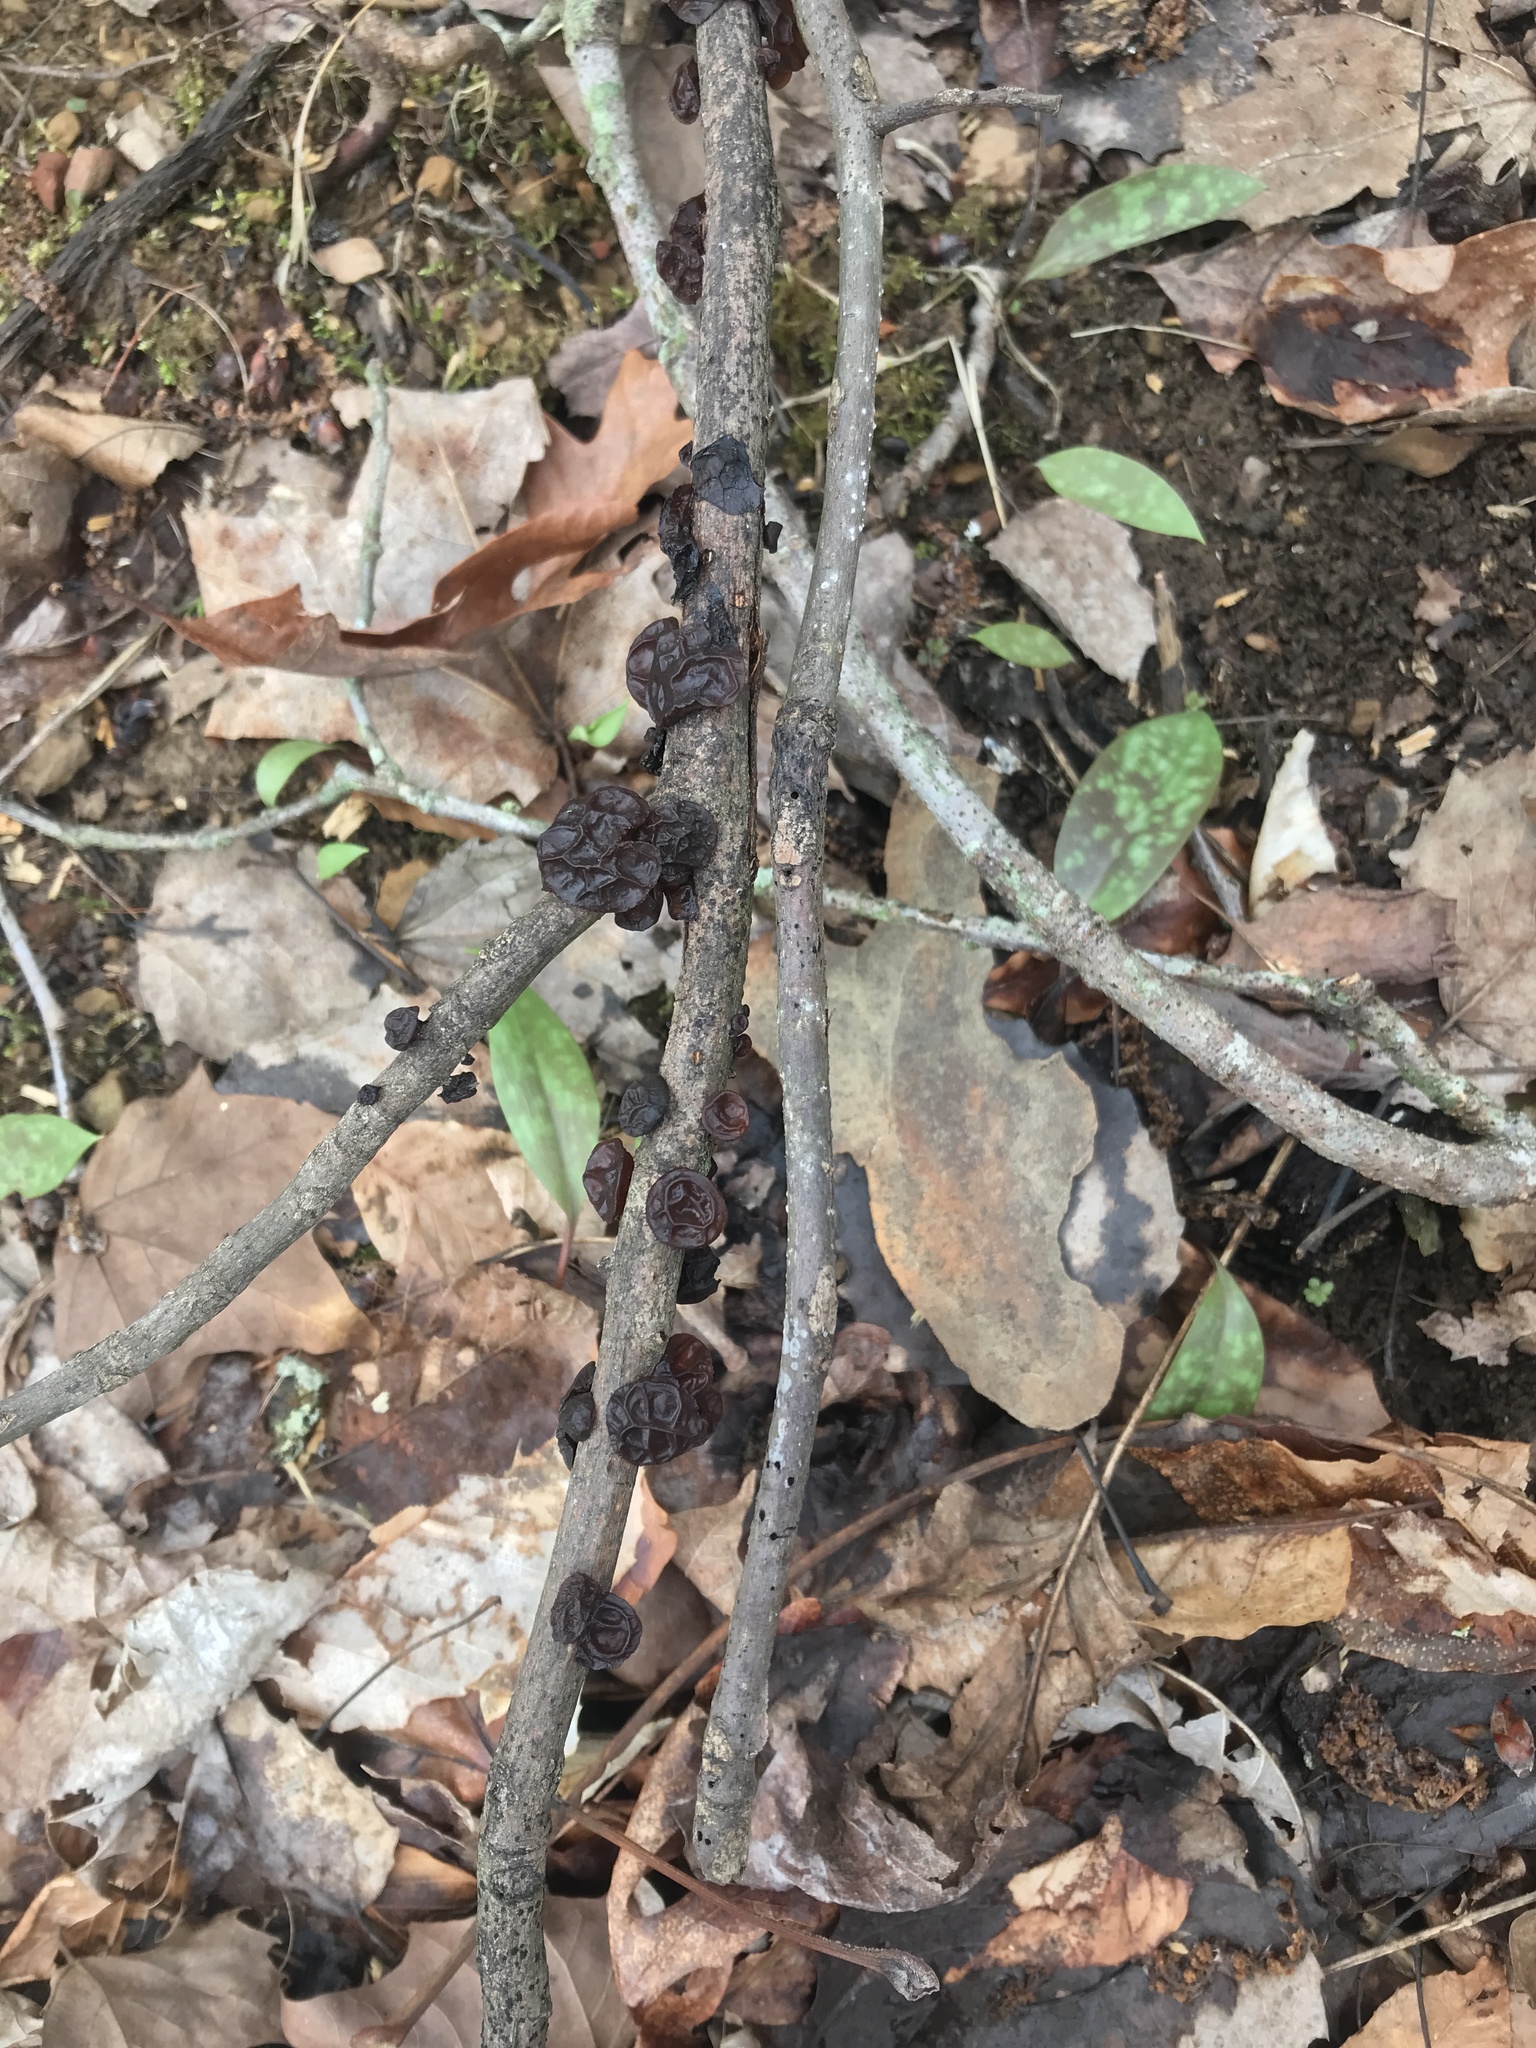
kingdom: Fungi
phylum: Basidiomycota
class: Agaricomycetes
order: Auriculariales
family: Auriculariaceae
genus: Exidia
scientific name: Exidia
